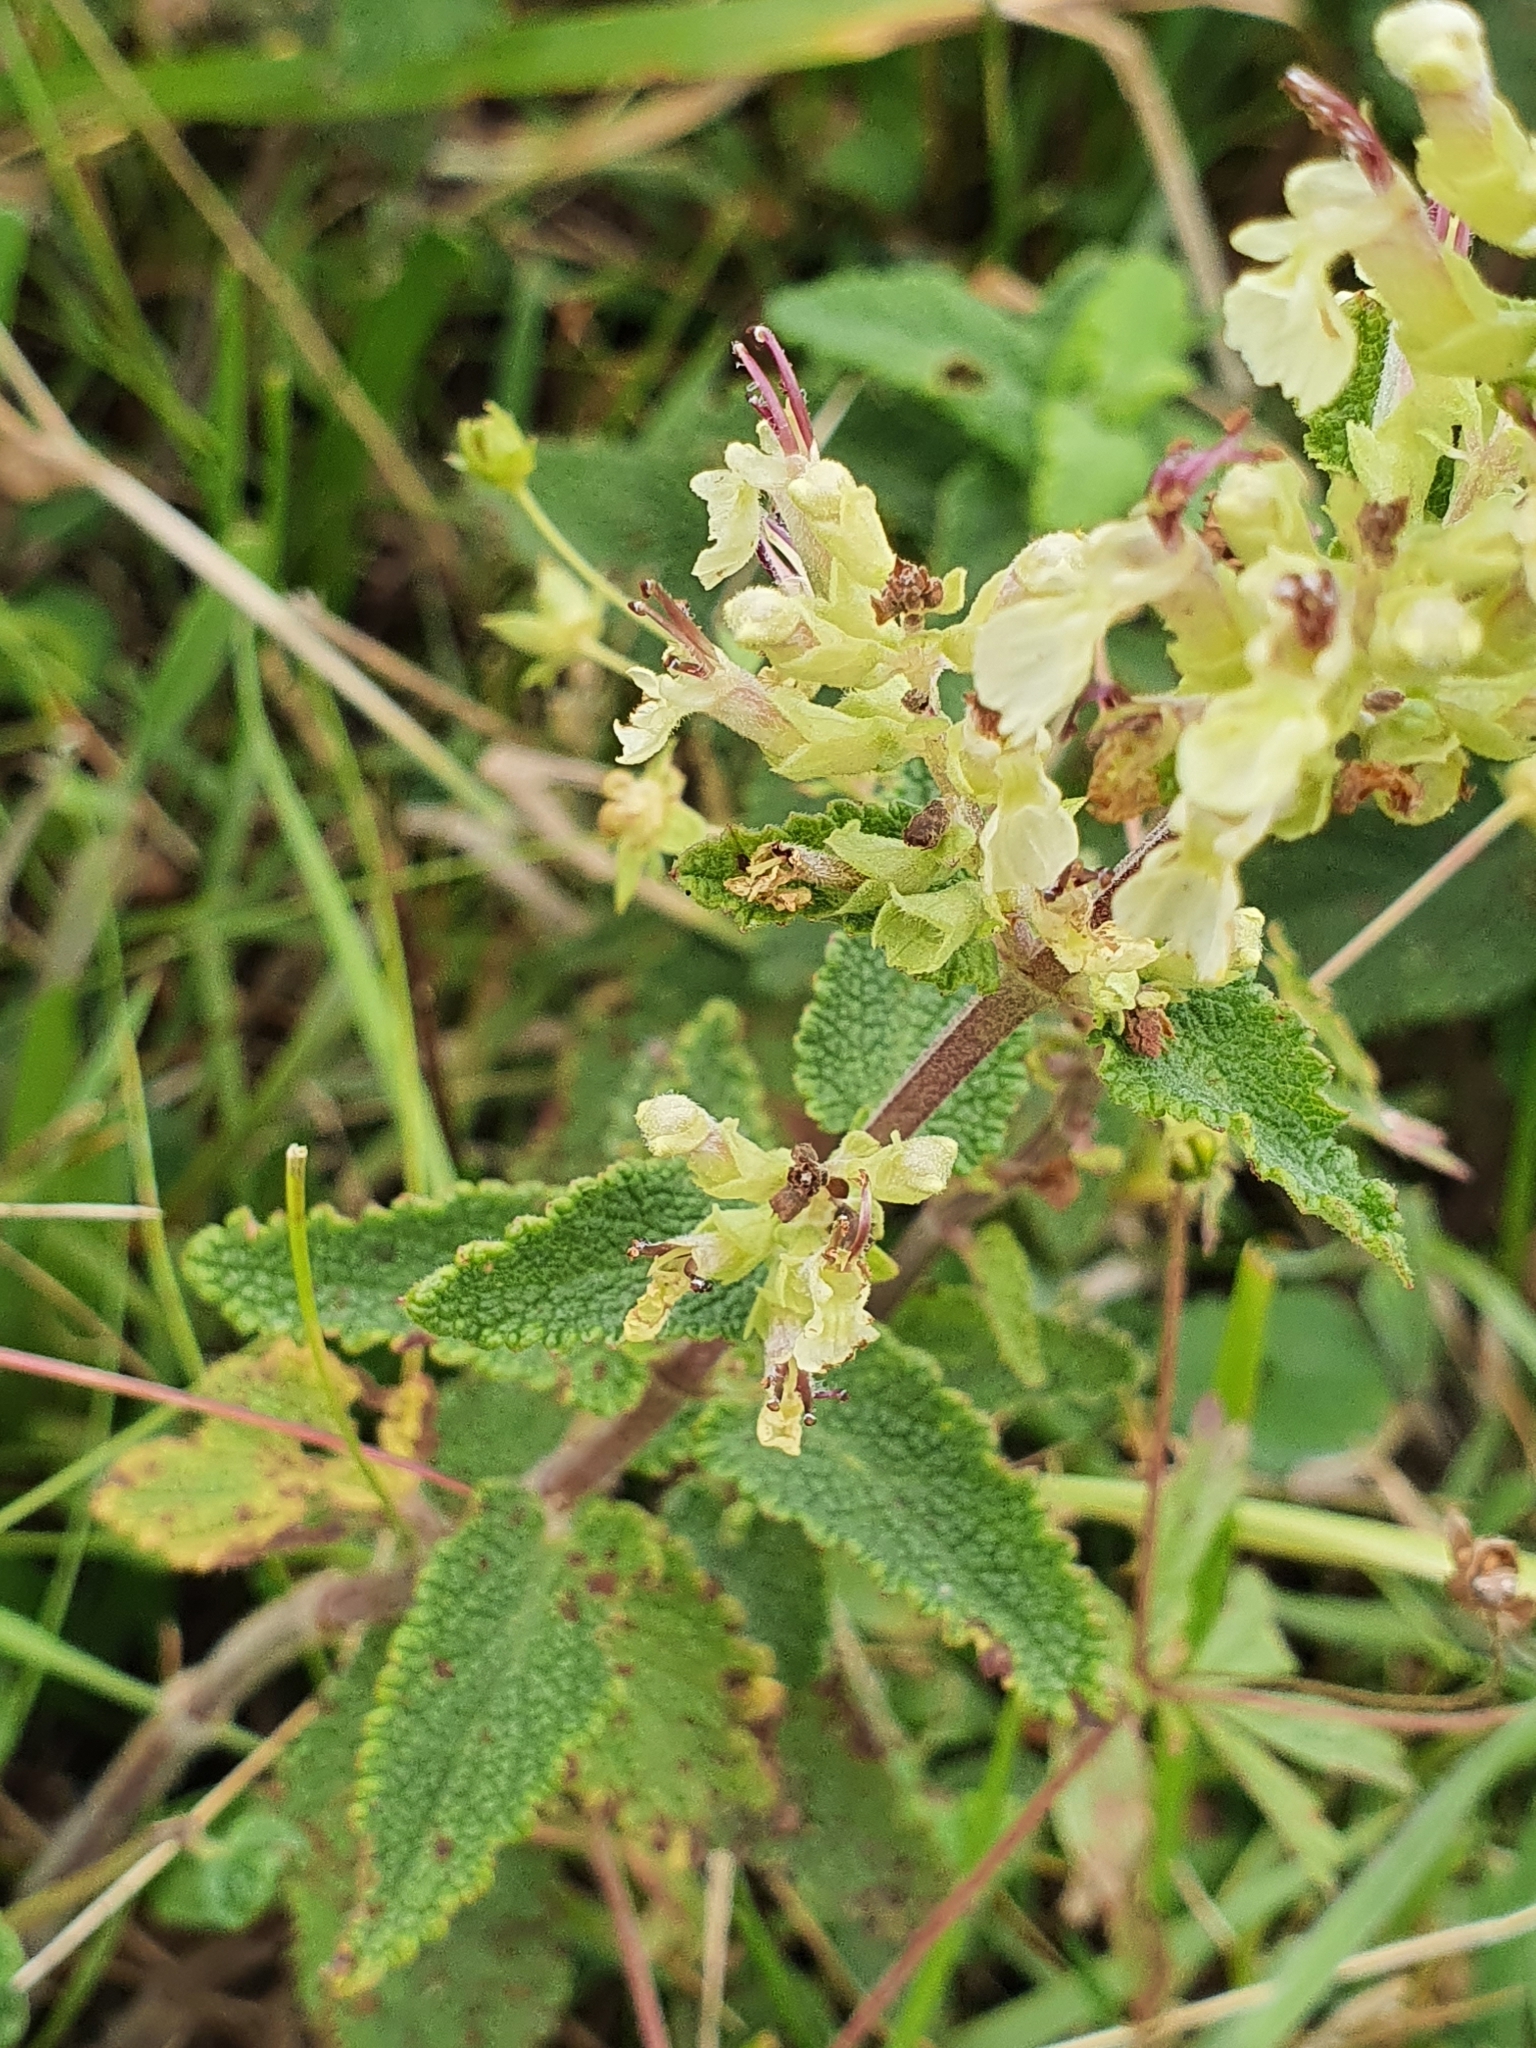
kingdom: Plantae
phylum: Tracheophyta
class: Magnoliopsida
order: Lamiales
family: Lamiaceae
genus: Teucrium
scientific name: Teucrium scorodonia
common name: Woodland germander
